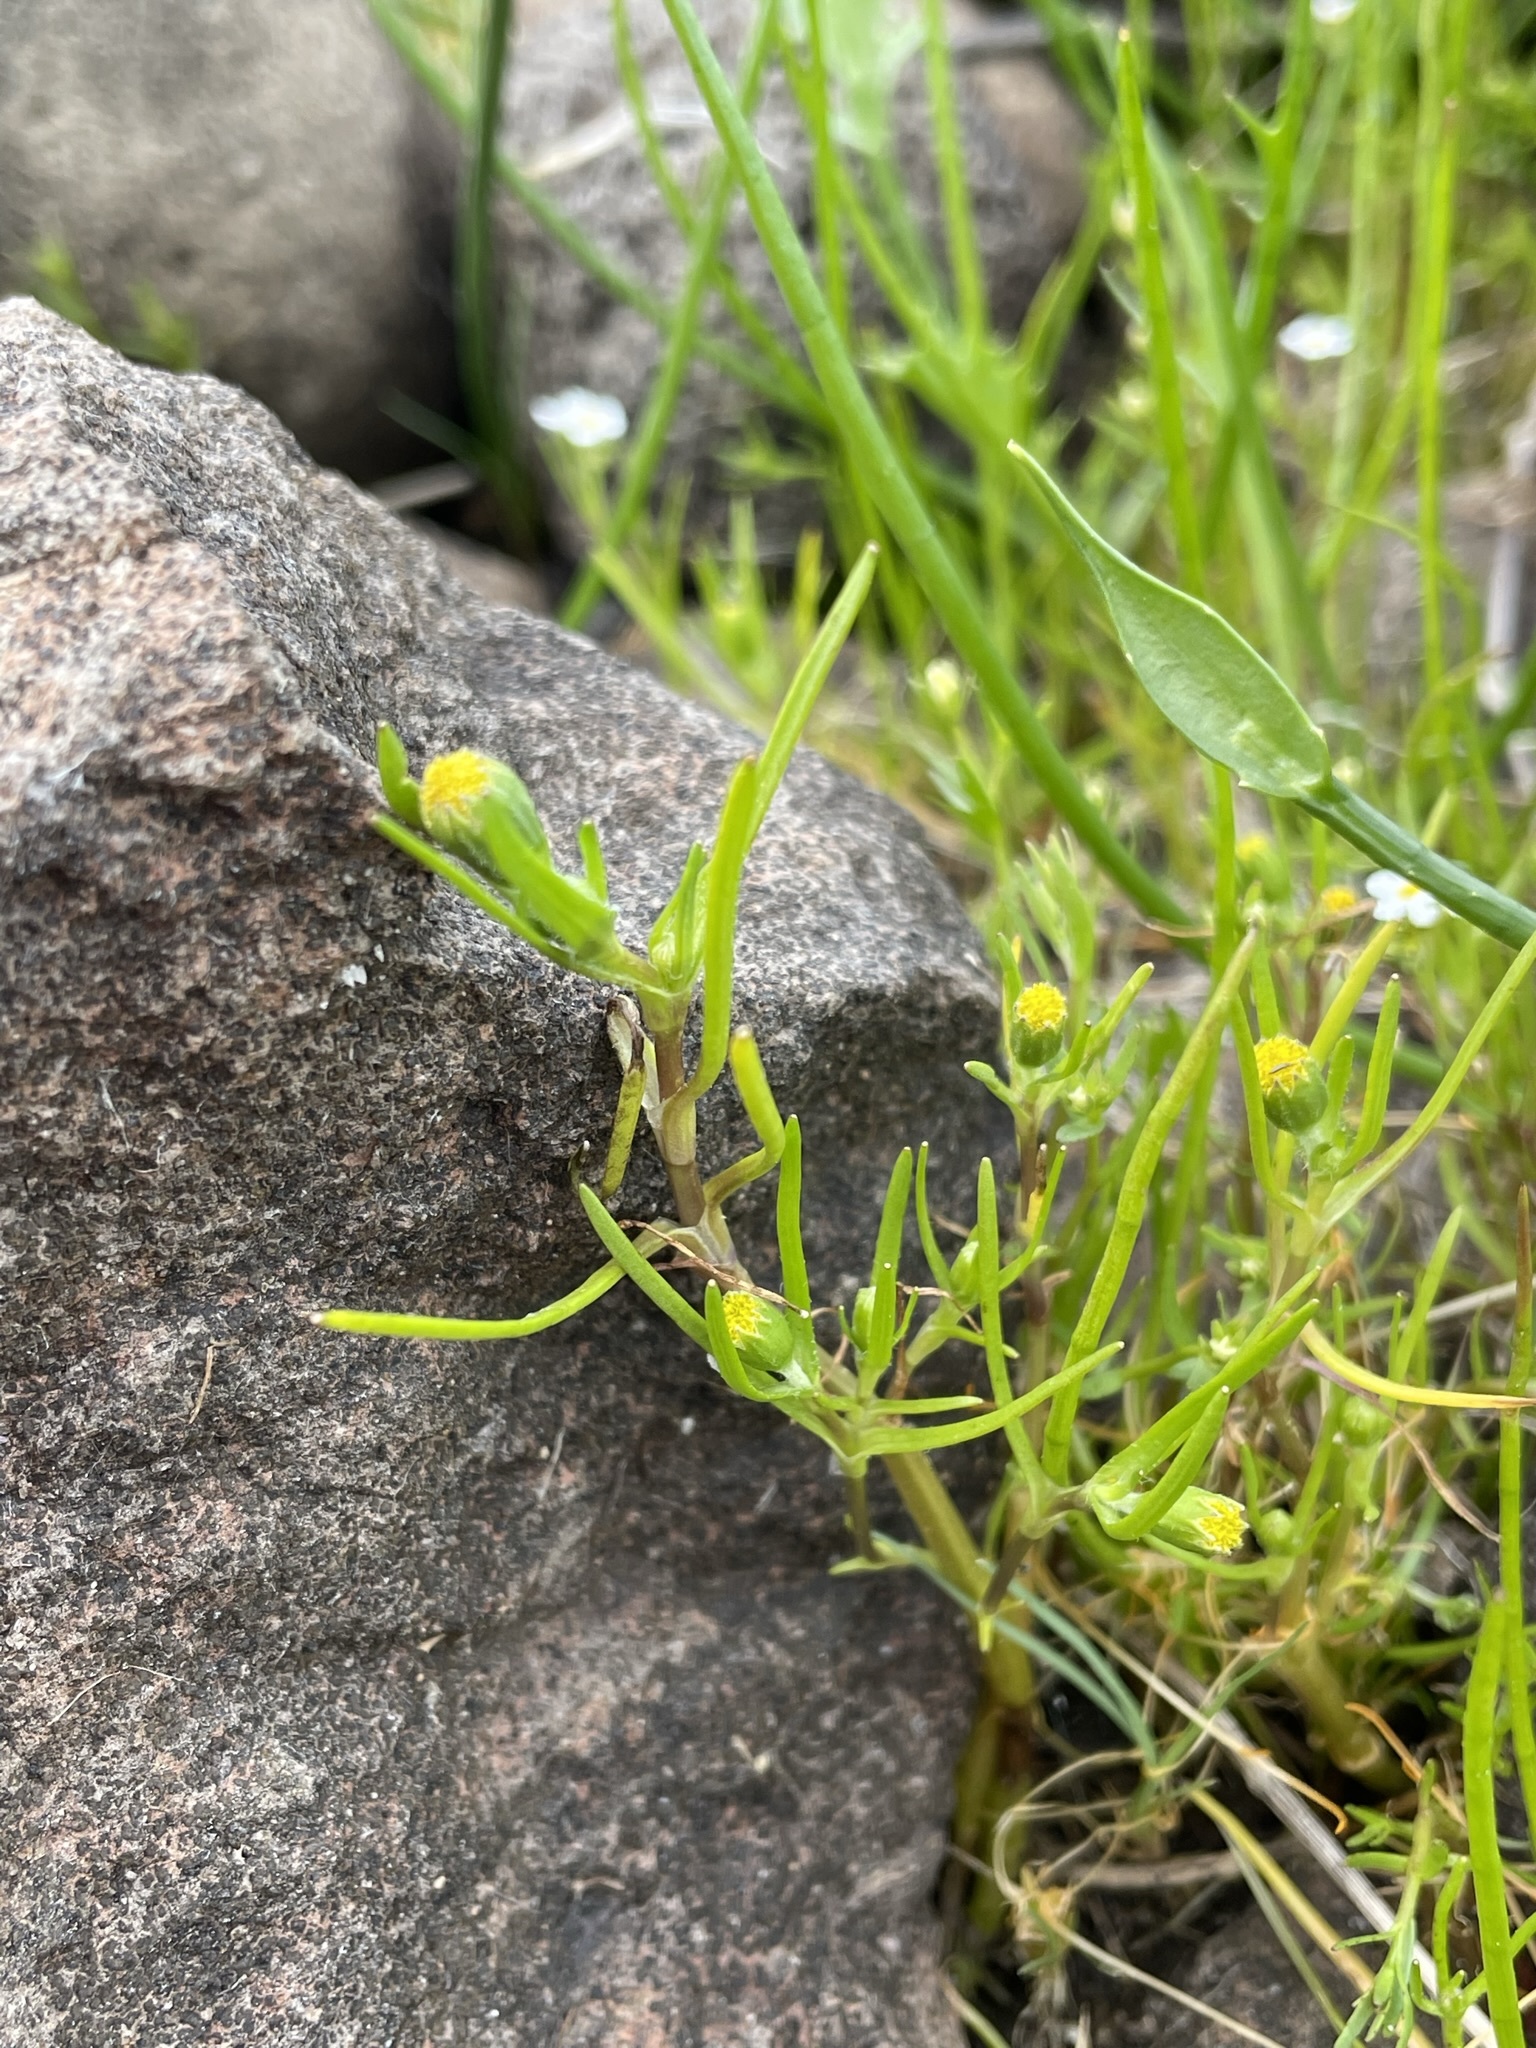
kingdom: Plantae
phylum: Tracheophyta
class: Magnoliopsida
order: Asterales
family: Asteraceae
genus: Lasthenia
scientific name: Lasthenia glaberrima
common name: Smooth goldfields
